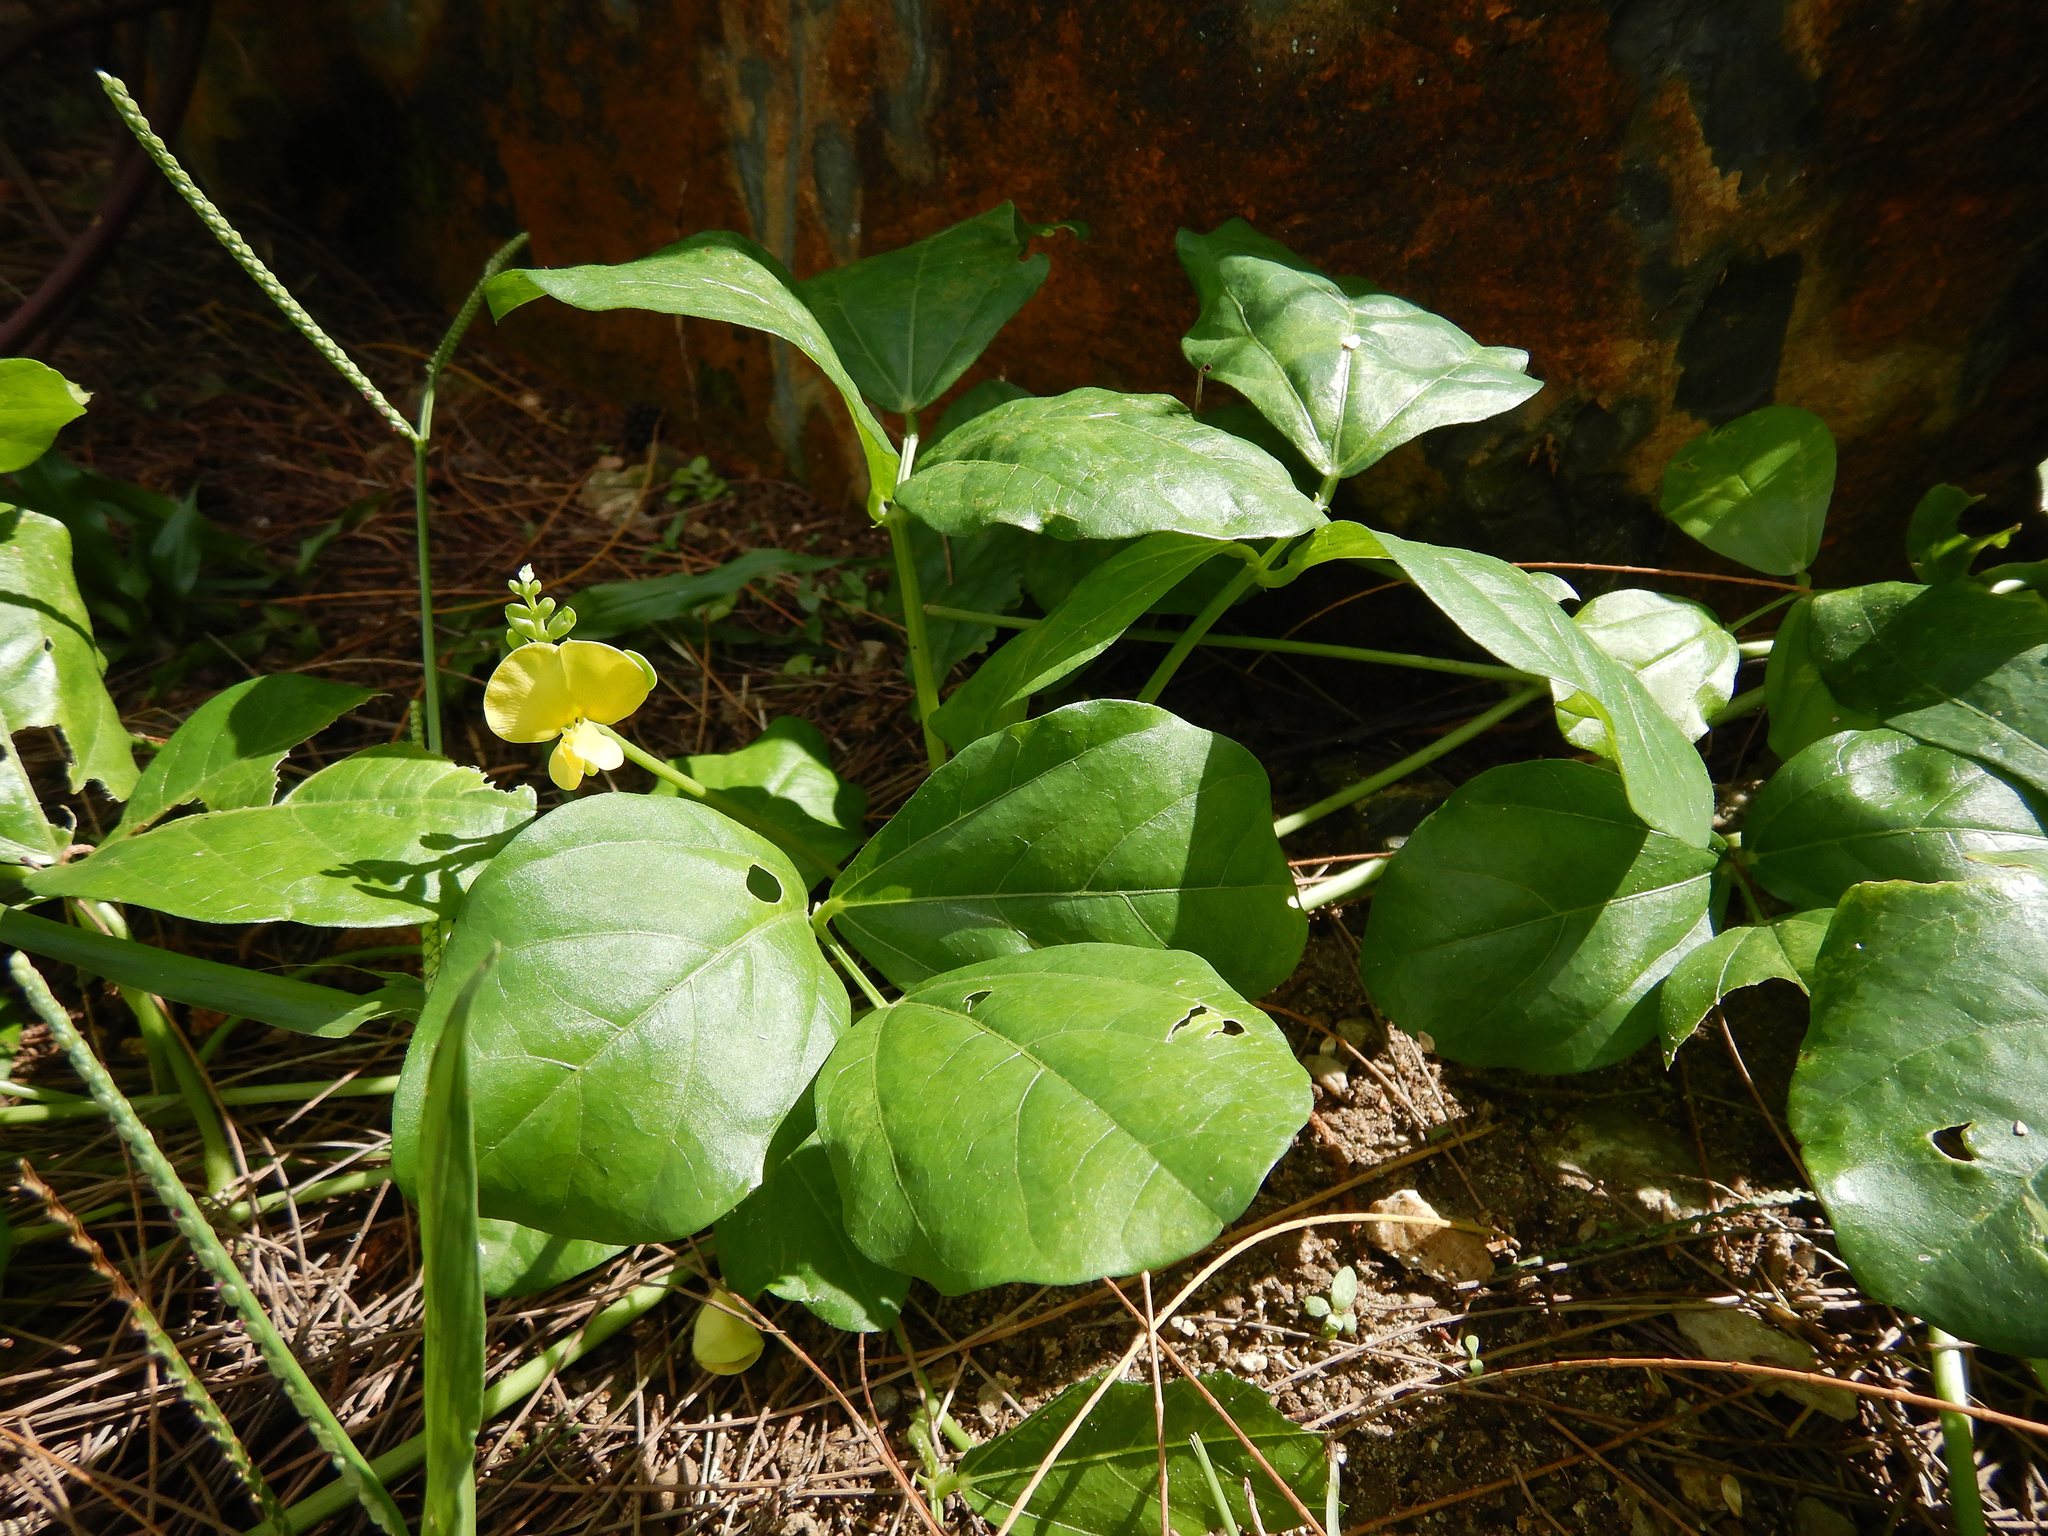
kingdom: Plantae
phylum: Tracheophyta
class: Magnoliopsida
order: Fabales
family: Fabaceae
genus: Vigna
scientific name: Vigna marina
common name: Dune-bean
